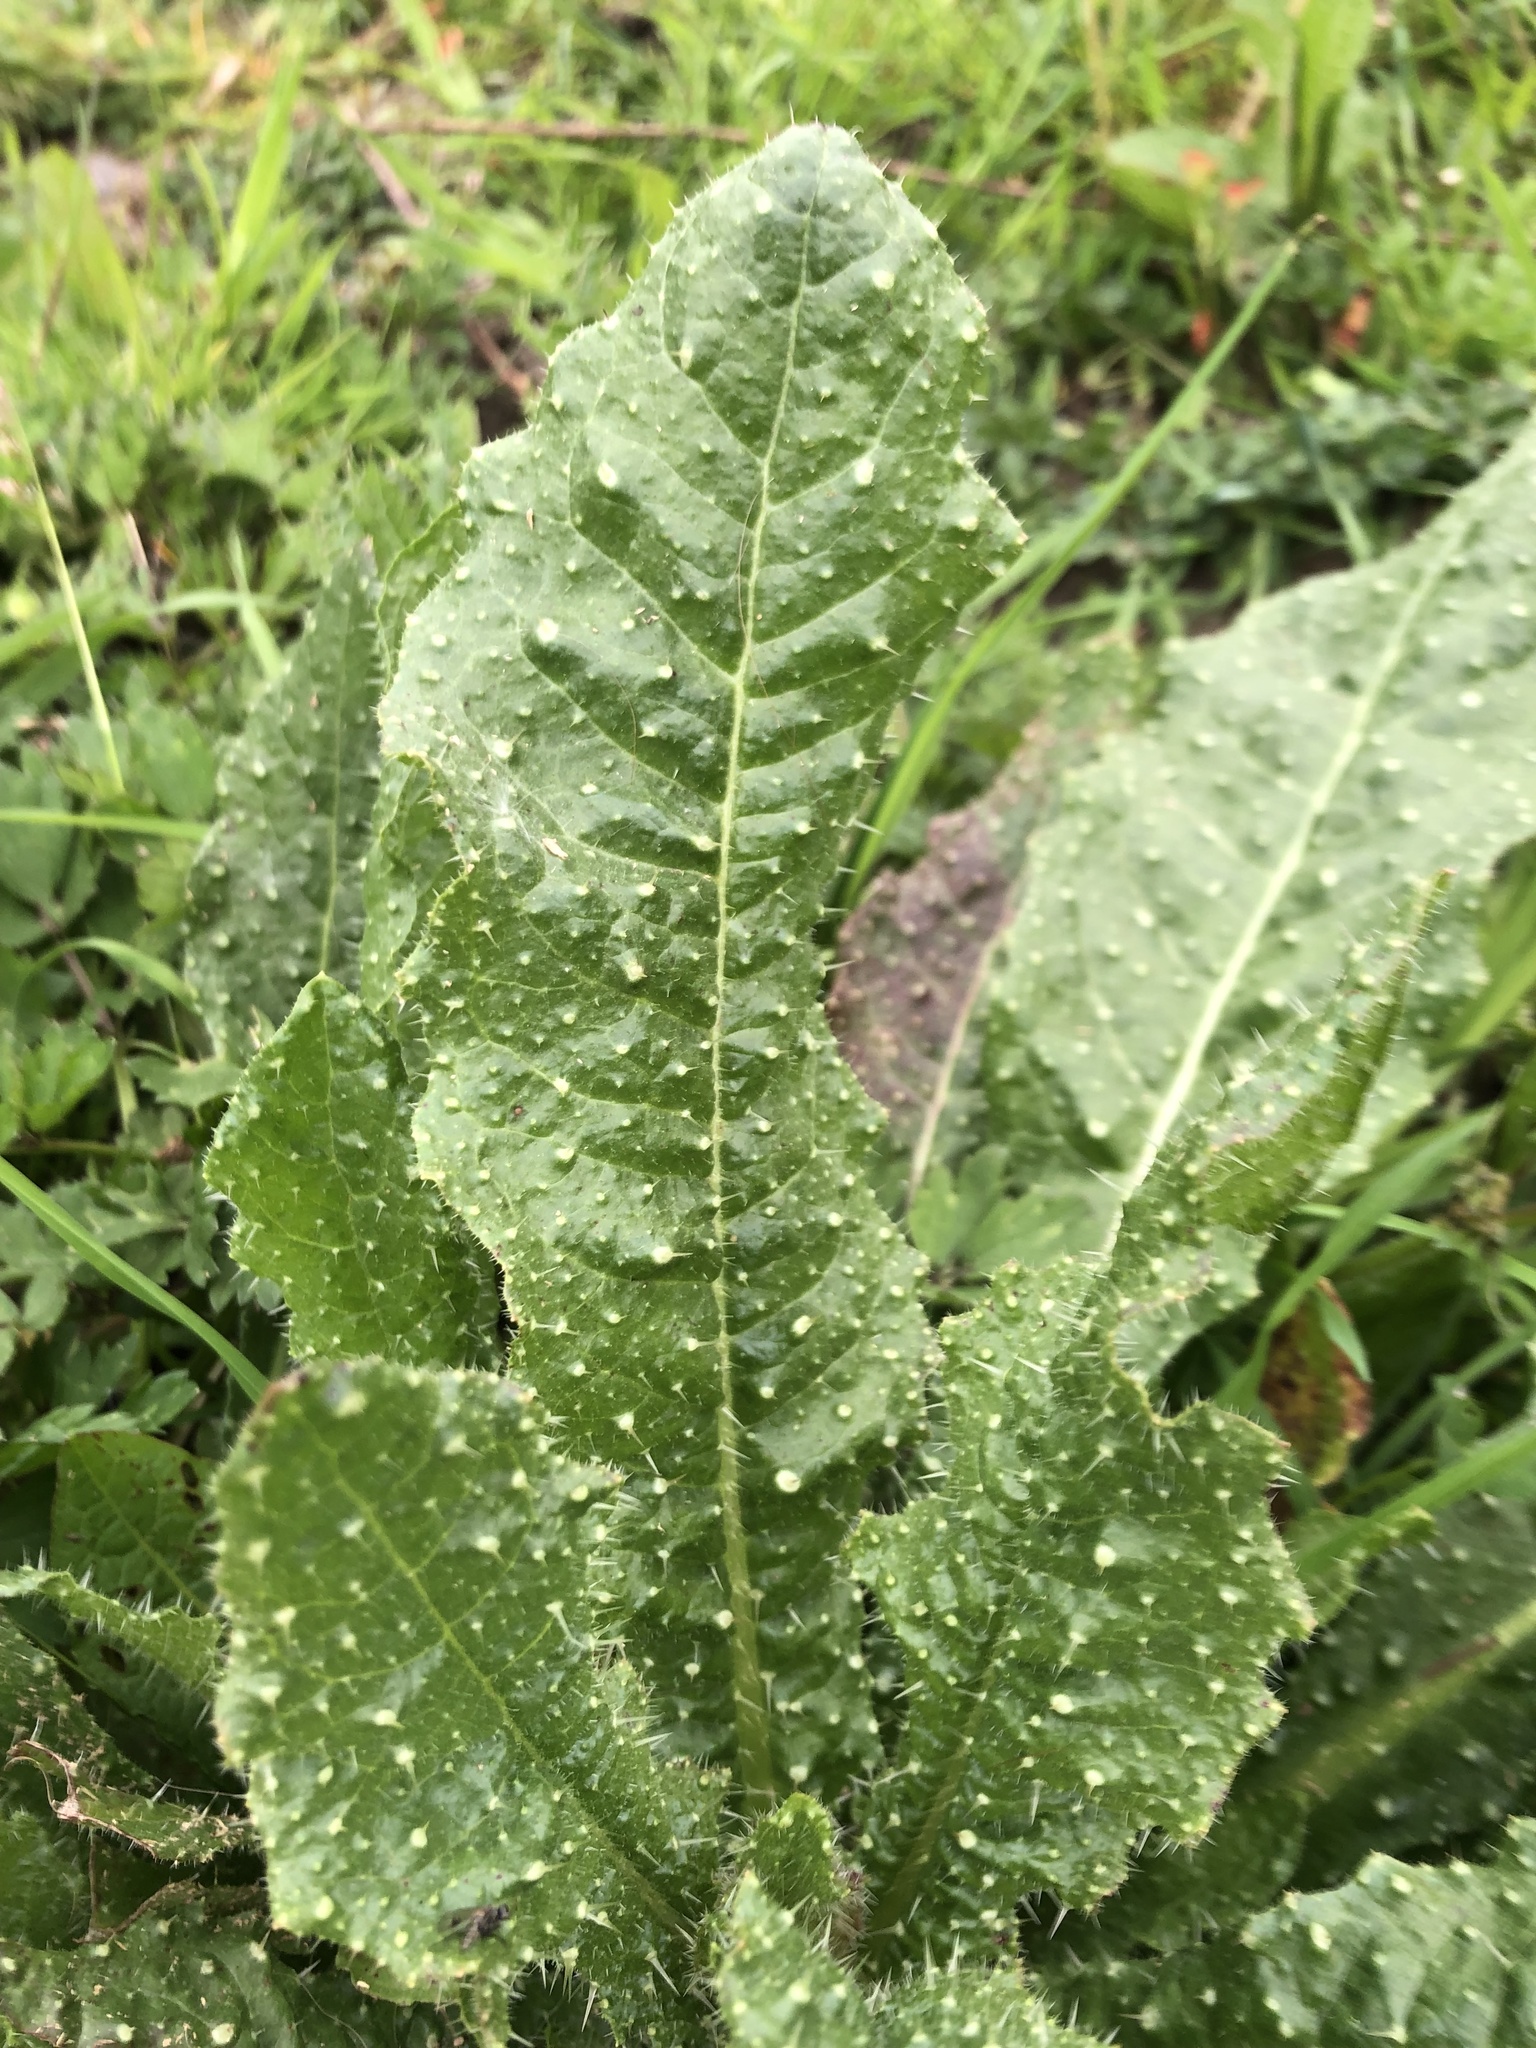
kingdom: Plantae
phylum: Tracheophyta
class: Magnoliopsida
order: Asterales
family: Asteraceae
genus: Helminthotheca
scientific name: Helminthotheca echioides
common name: Ox-tongue
